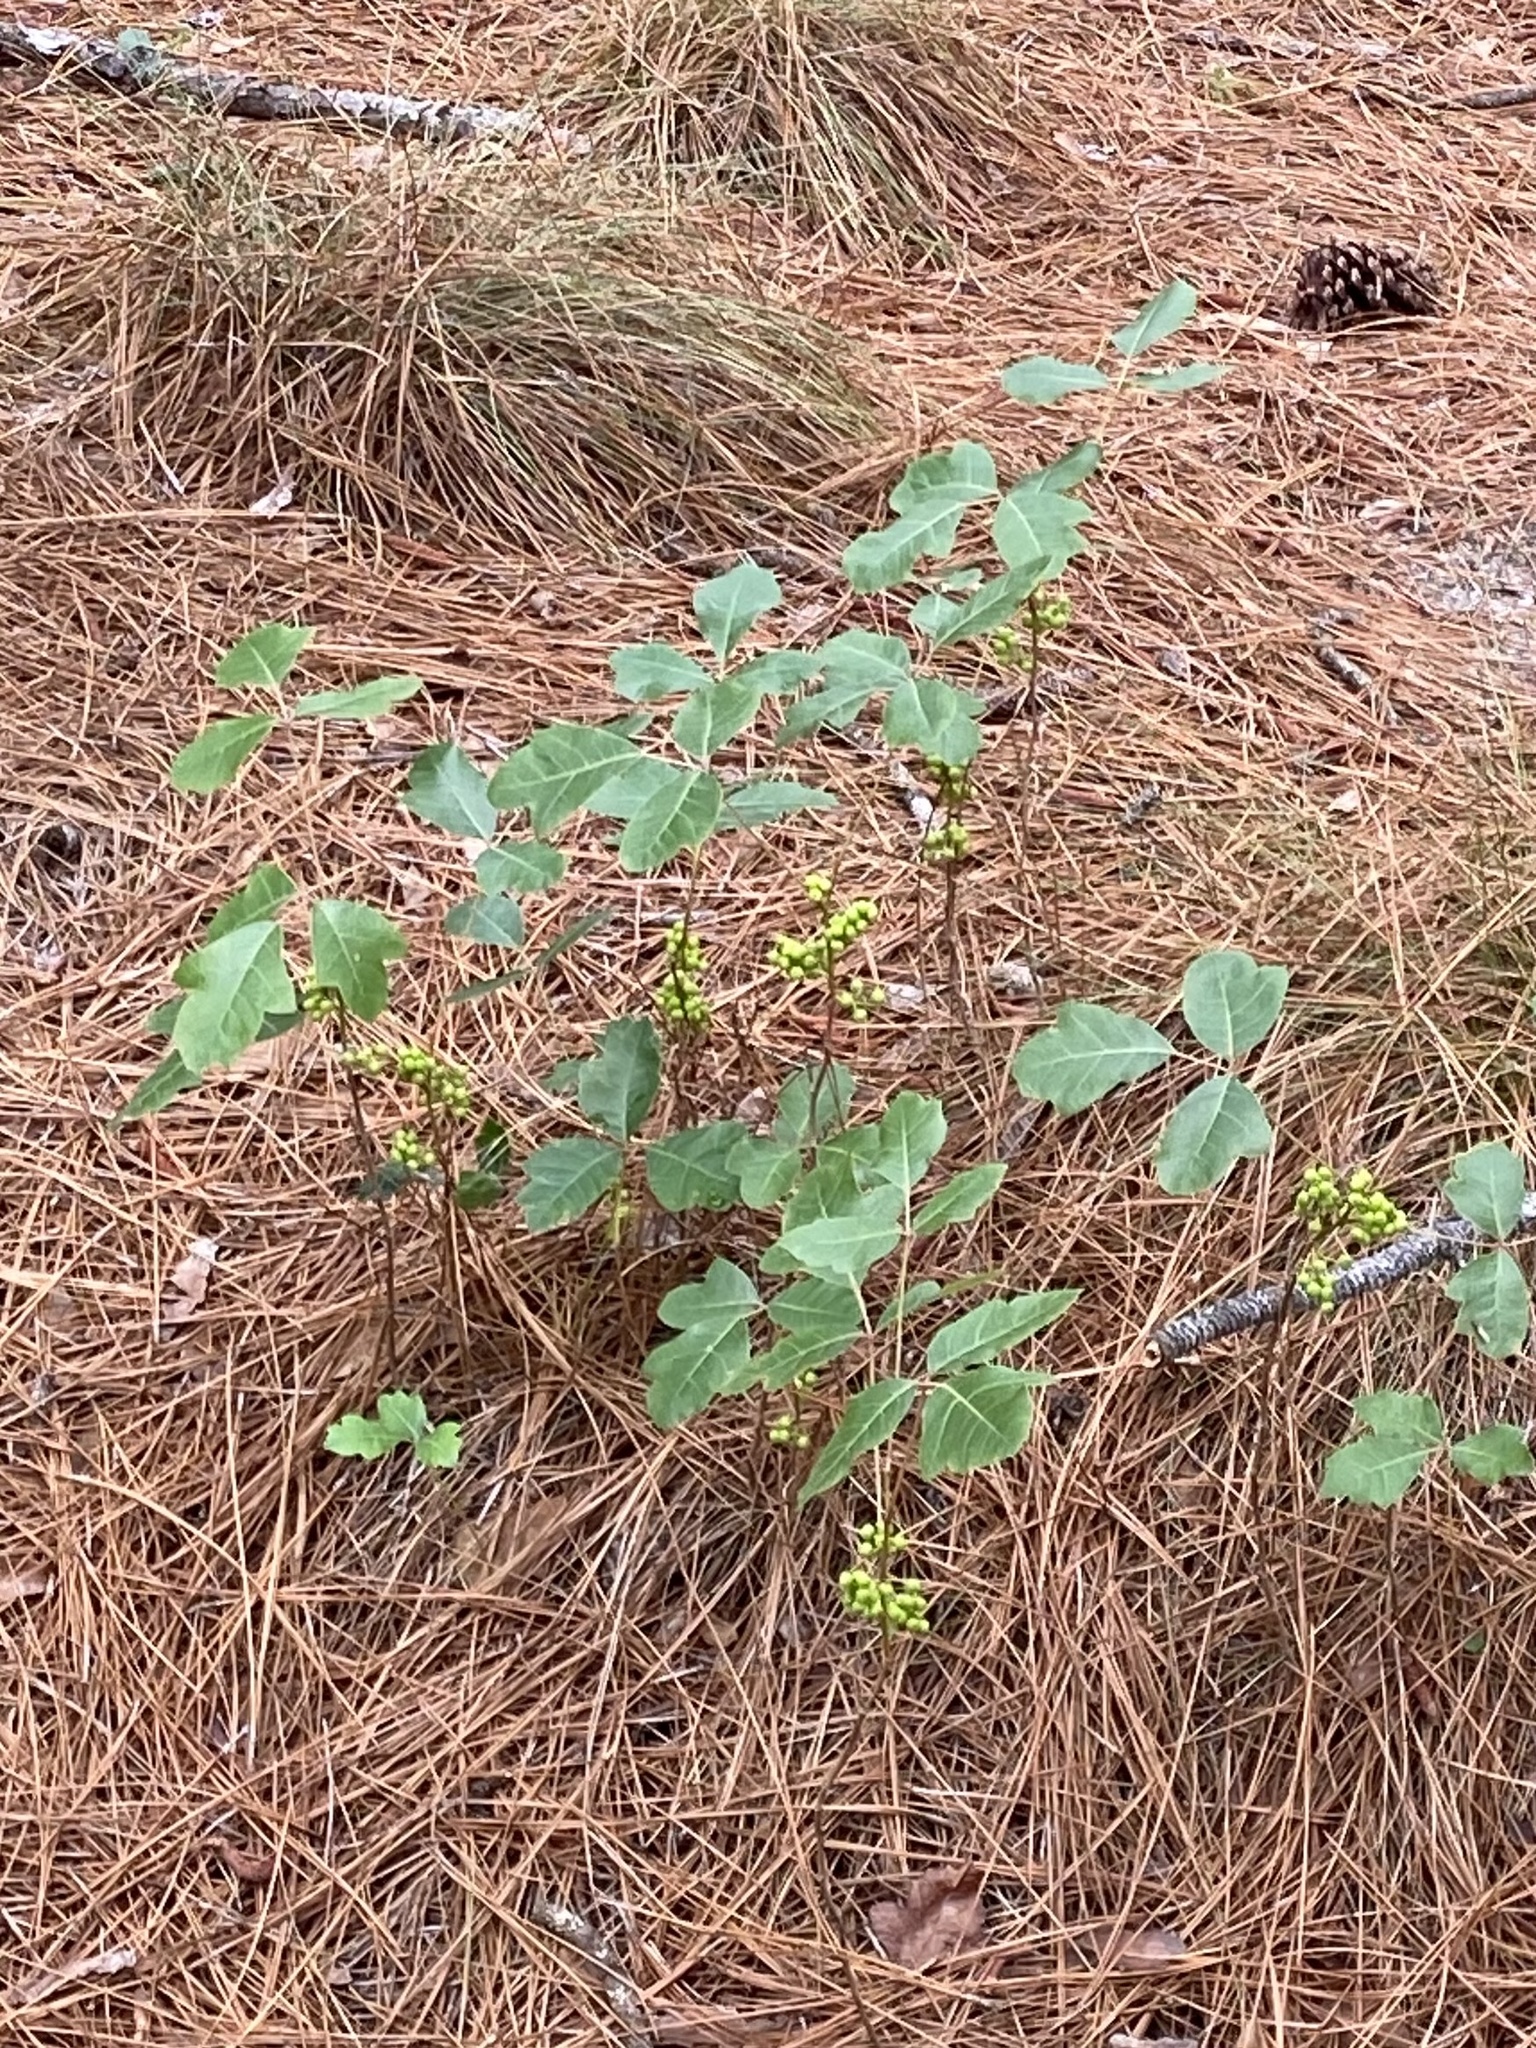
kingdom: Plantae
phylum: Tracheophyta
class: Magnoliopsida
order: Sapindales
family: Anacardiaceae
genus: Toxicodendron
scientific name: Toxicodendron pubescens
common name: Eastern poison-oak
